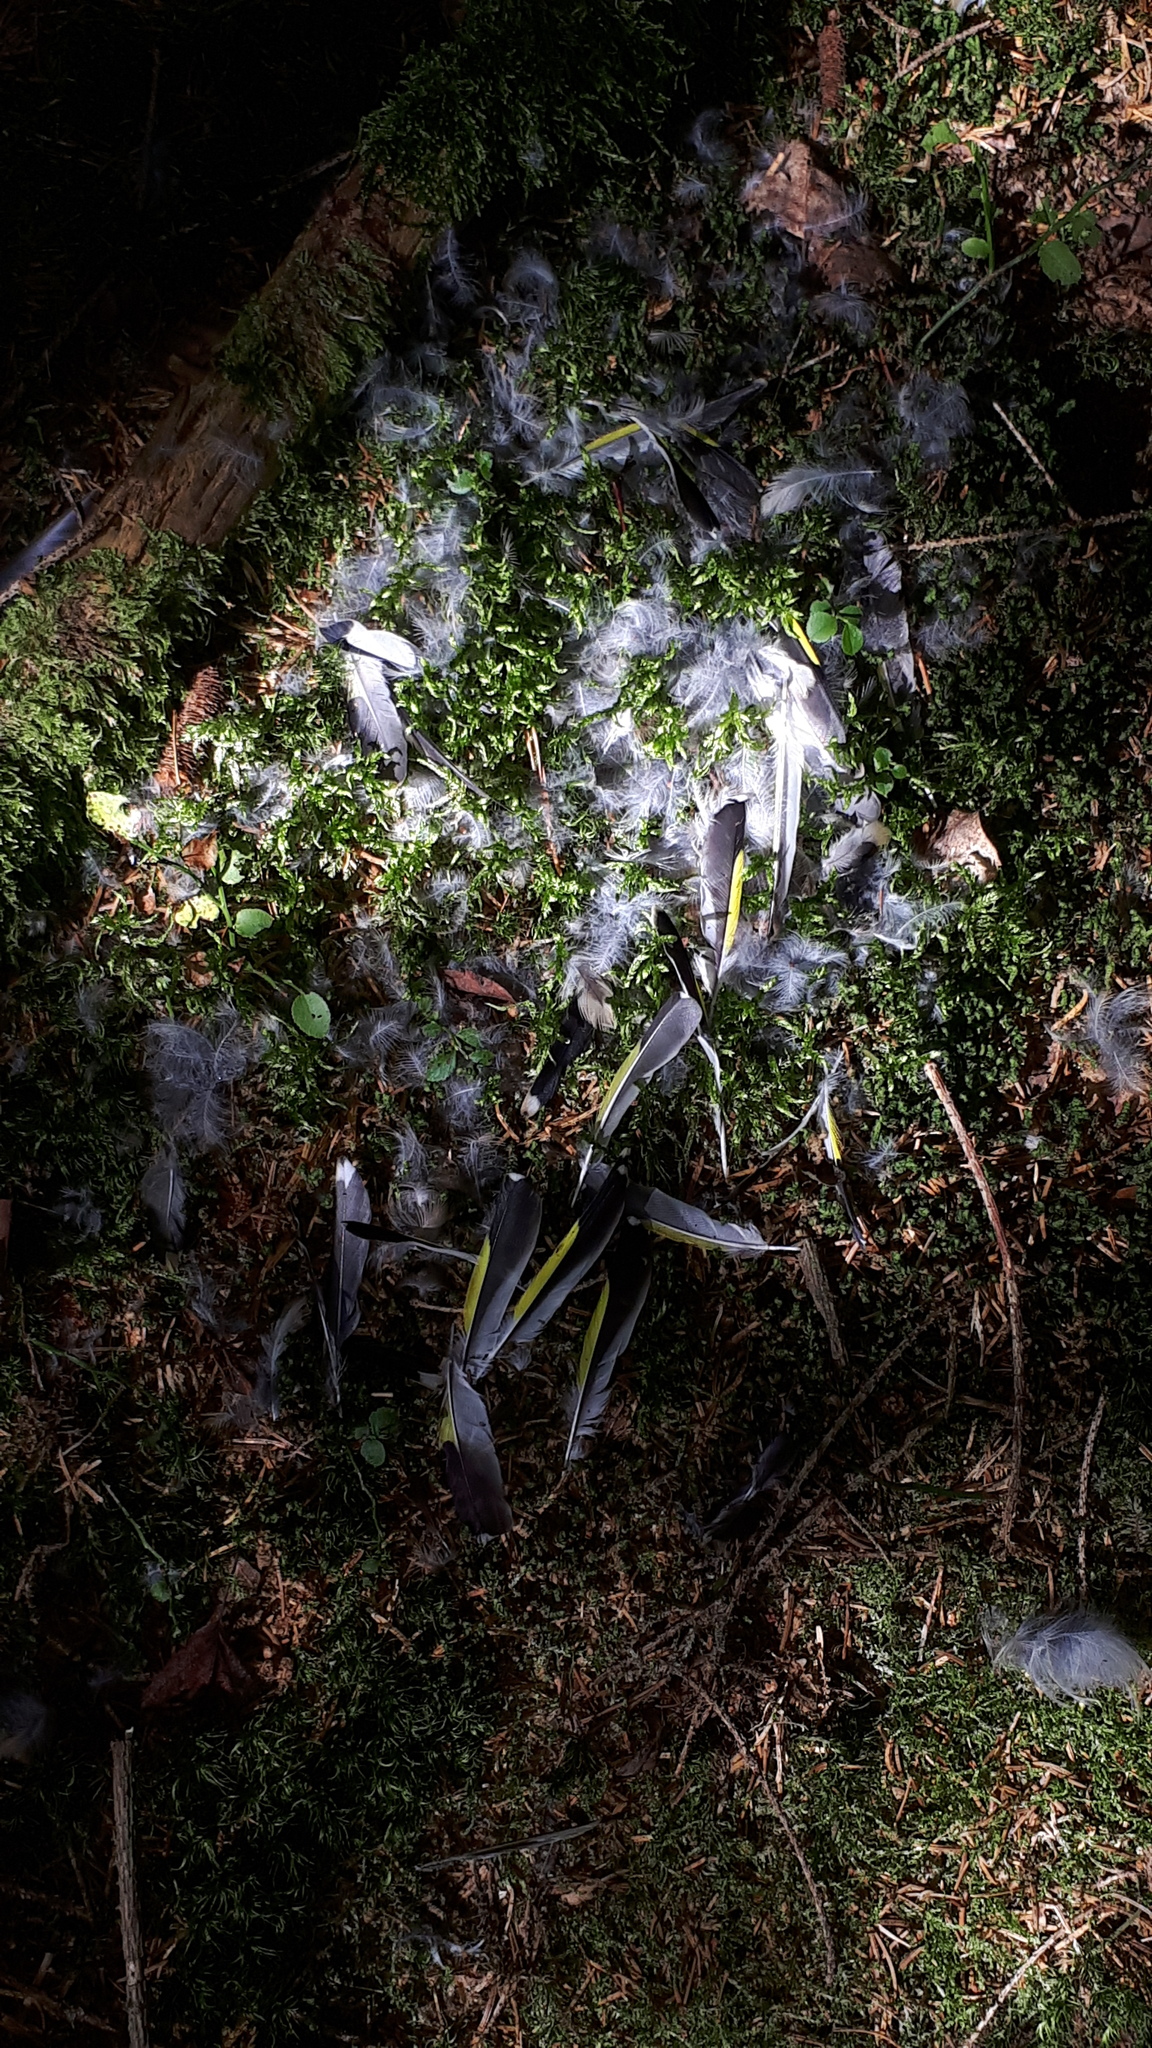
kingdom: Animalia
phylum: Chordata
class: Aves
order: Passeriformes
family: Fringillidae
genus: Carduelis
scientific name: Carduelis carduelis
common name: European goldfinch
